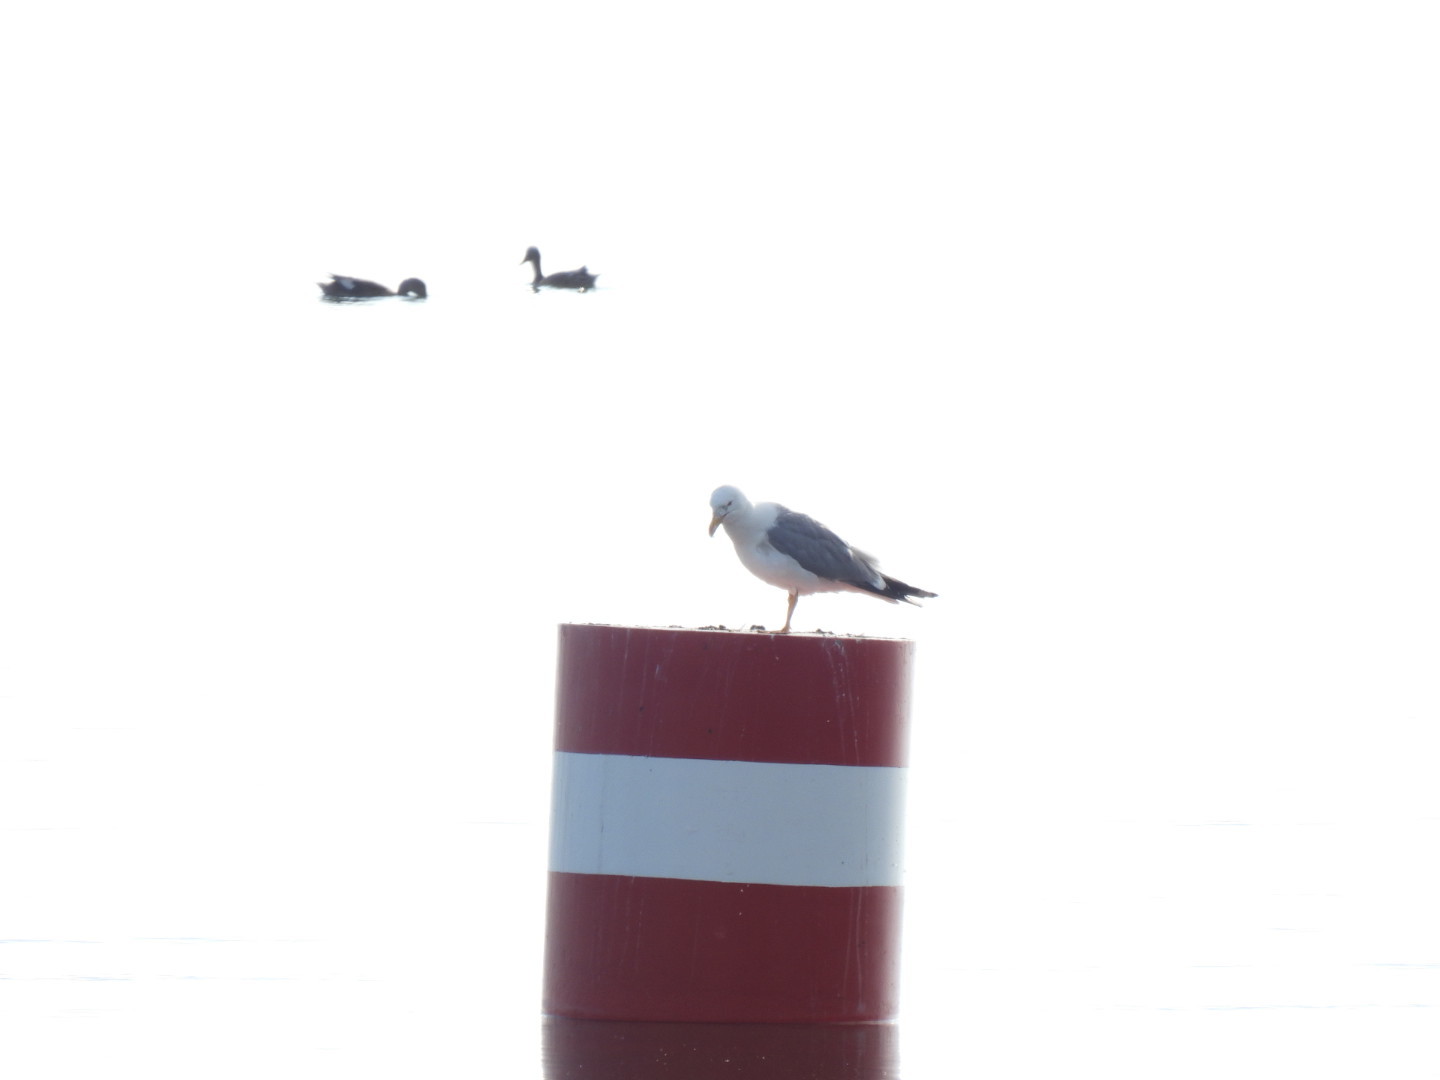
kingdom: Animalia
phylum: Chordata
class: Aves
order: Charadriiformes
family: Laridae
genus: Larus
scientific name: Larus canus
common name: Mew gull
